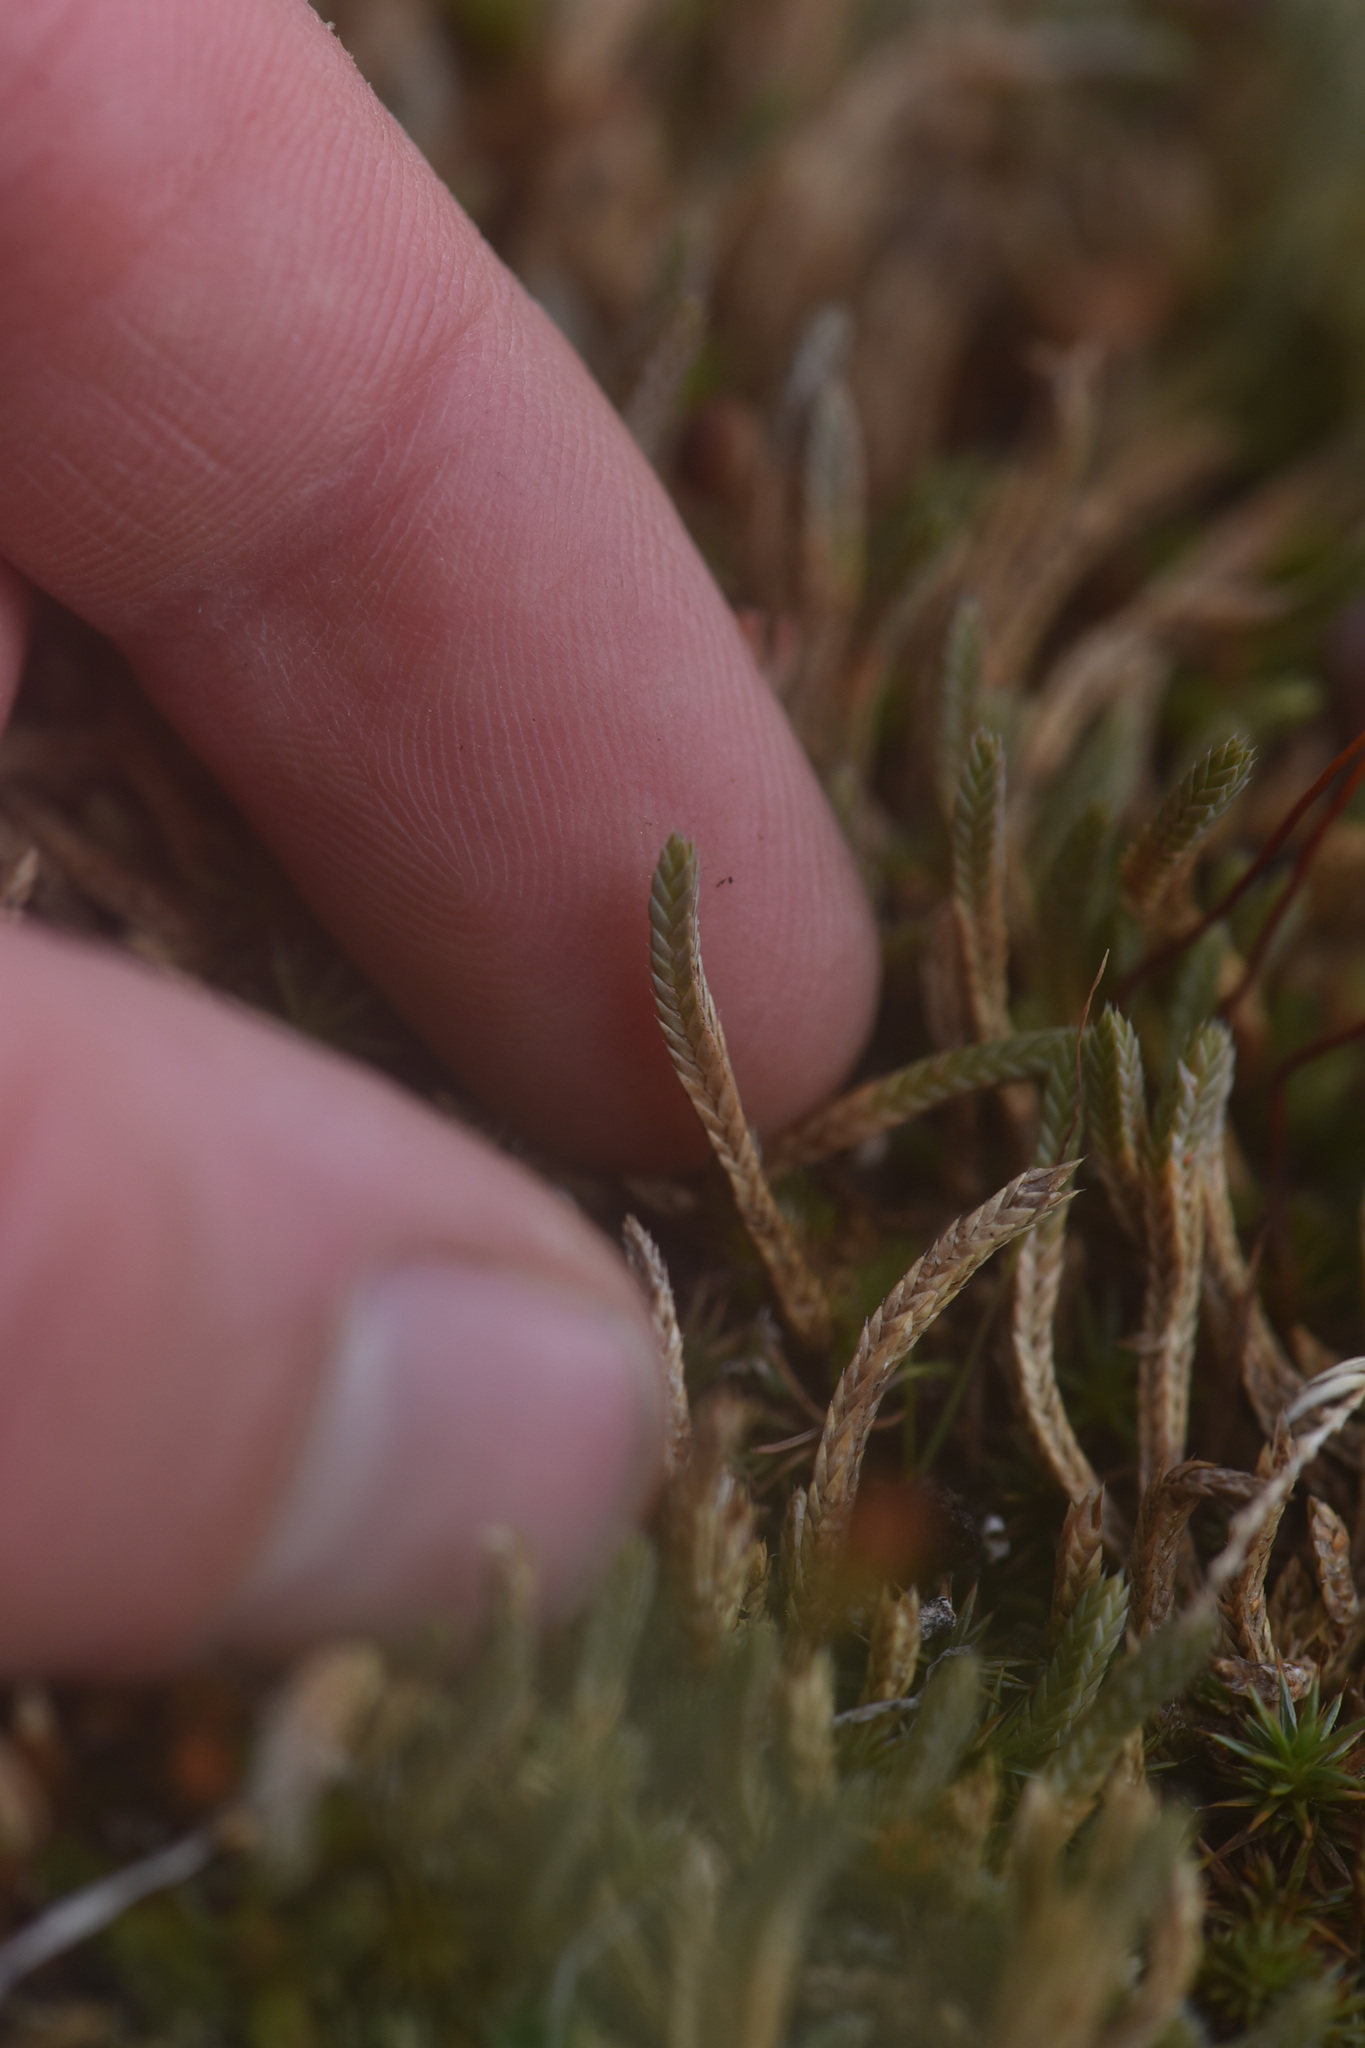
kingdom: Plantae
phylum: Tracheophyta
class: Lycopodiopsida
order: Selaginellales
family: Selaginellaceae
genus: Selaginella
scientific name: Selaginella densa
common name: Mountain spike-moss
